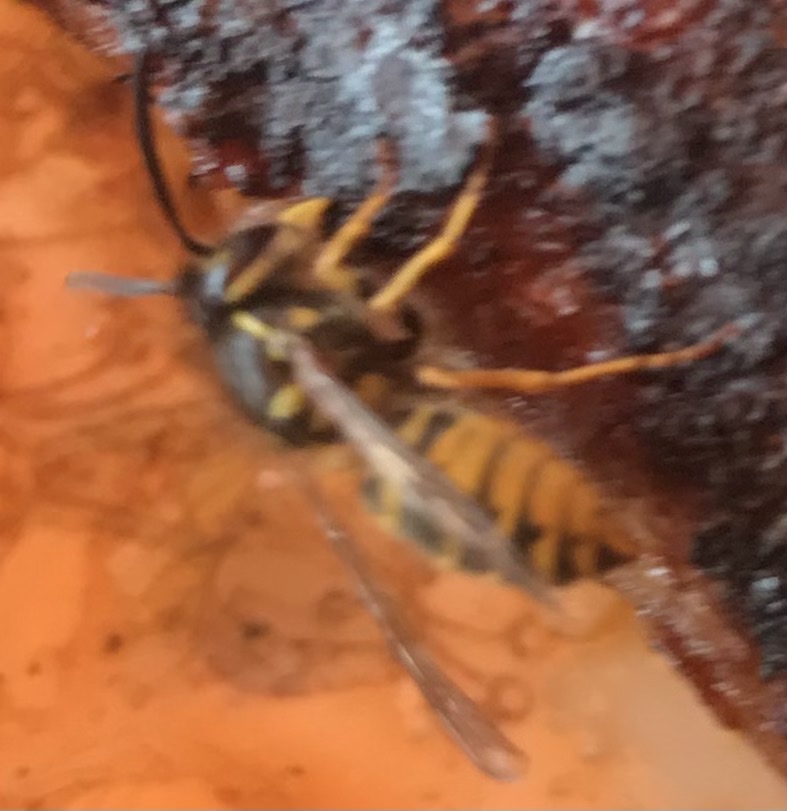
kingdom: Animalia
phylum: Arthropoda
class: Insecta
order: Hymenoptera
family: Vespidae
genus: Vespula
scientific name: Vespula vulgaris
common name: Common wasp
